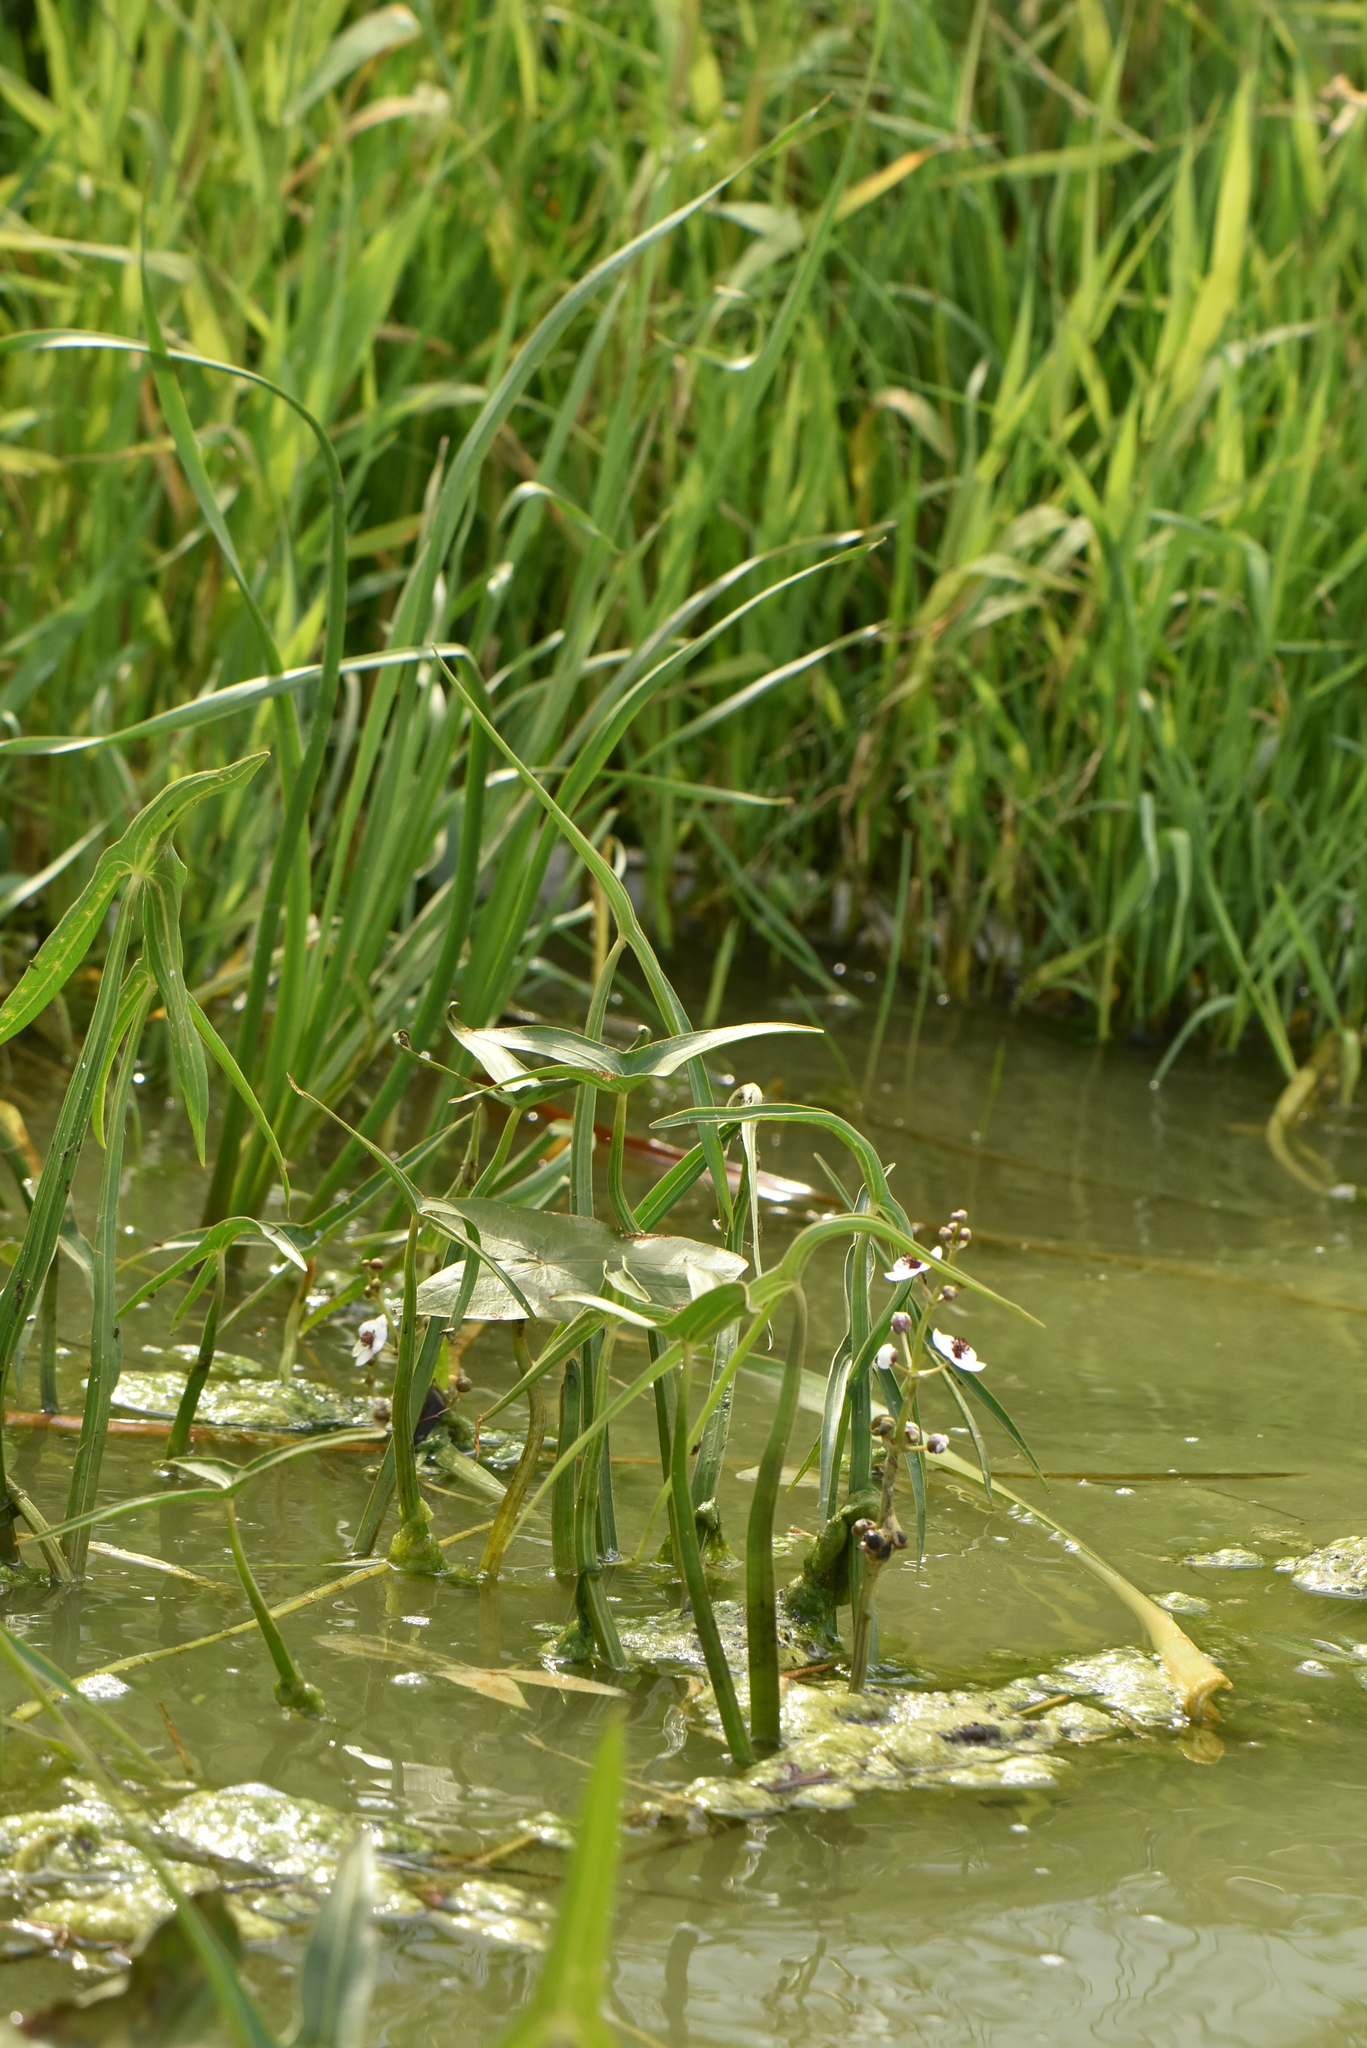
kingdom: Plantae
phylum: Tracheophyta
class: Liliopsida
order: Alismatales
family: Alismataceae
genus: Sagittaria
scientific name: Sagittaria sagittifolia
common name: Arrowhead
